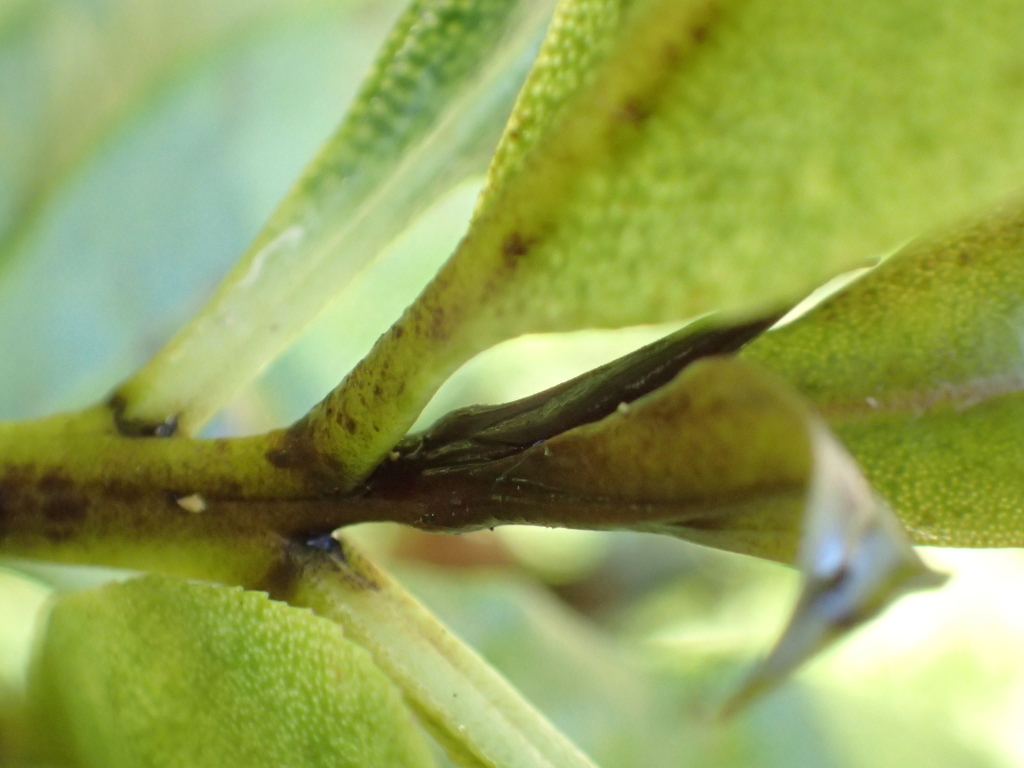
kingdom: Plantae
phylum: Tracheophyta
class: Magnoliopsida
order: Lamiales
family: Scrophulariaceae
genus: Myoporum
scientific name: Myoporum laetum
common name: Ngaio tree
